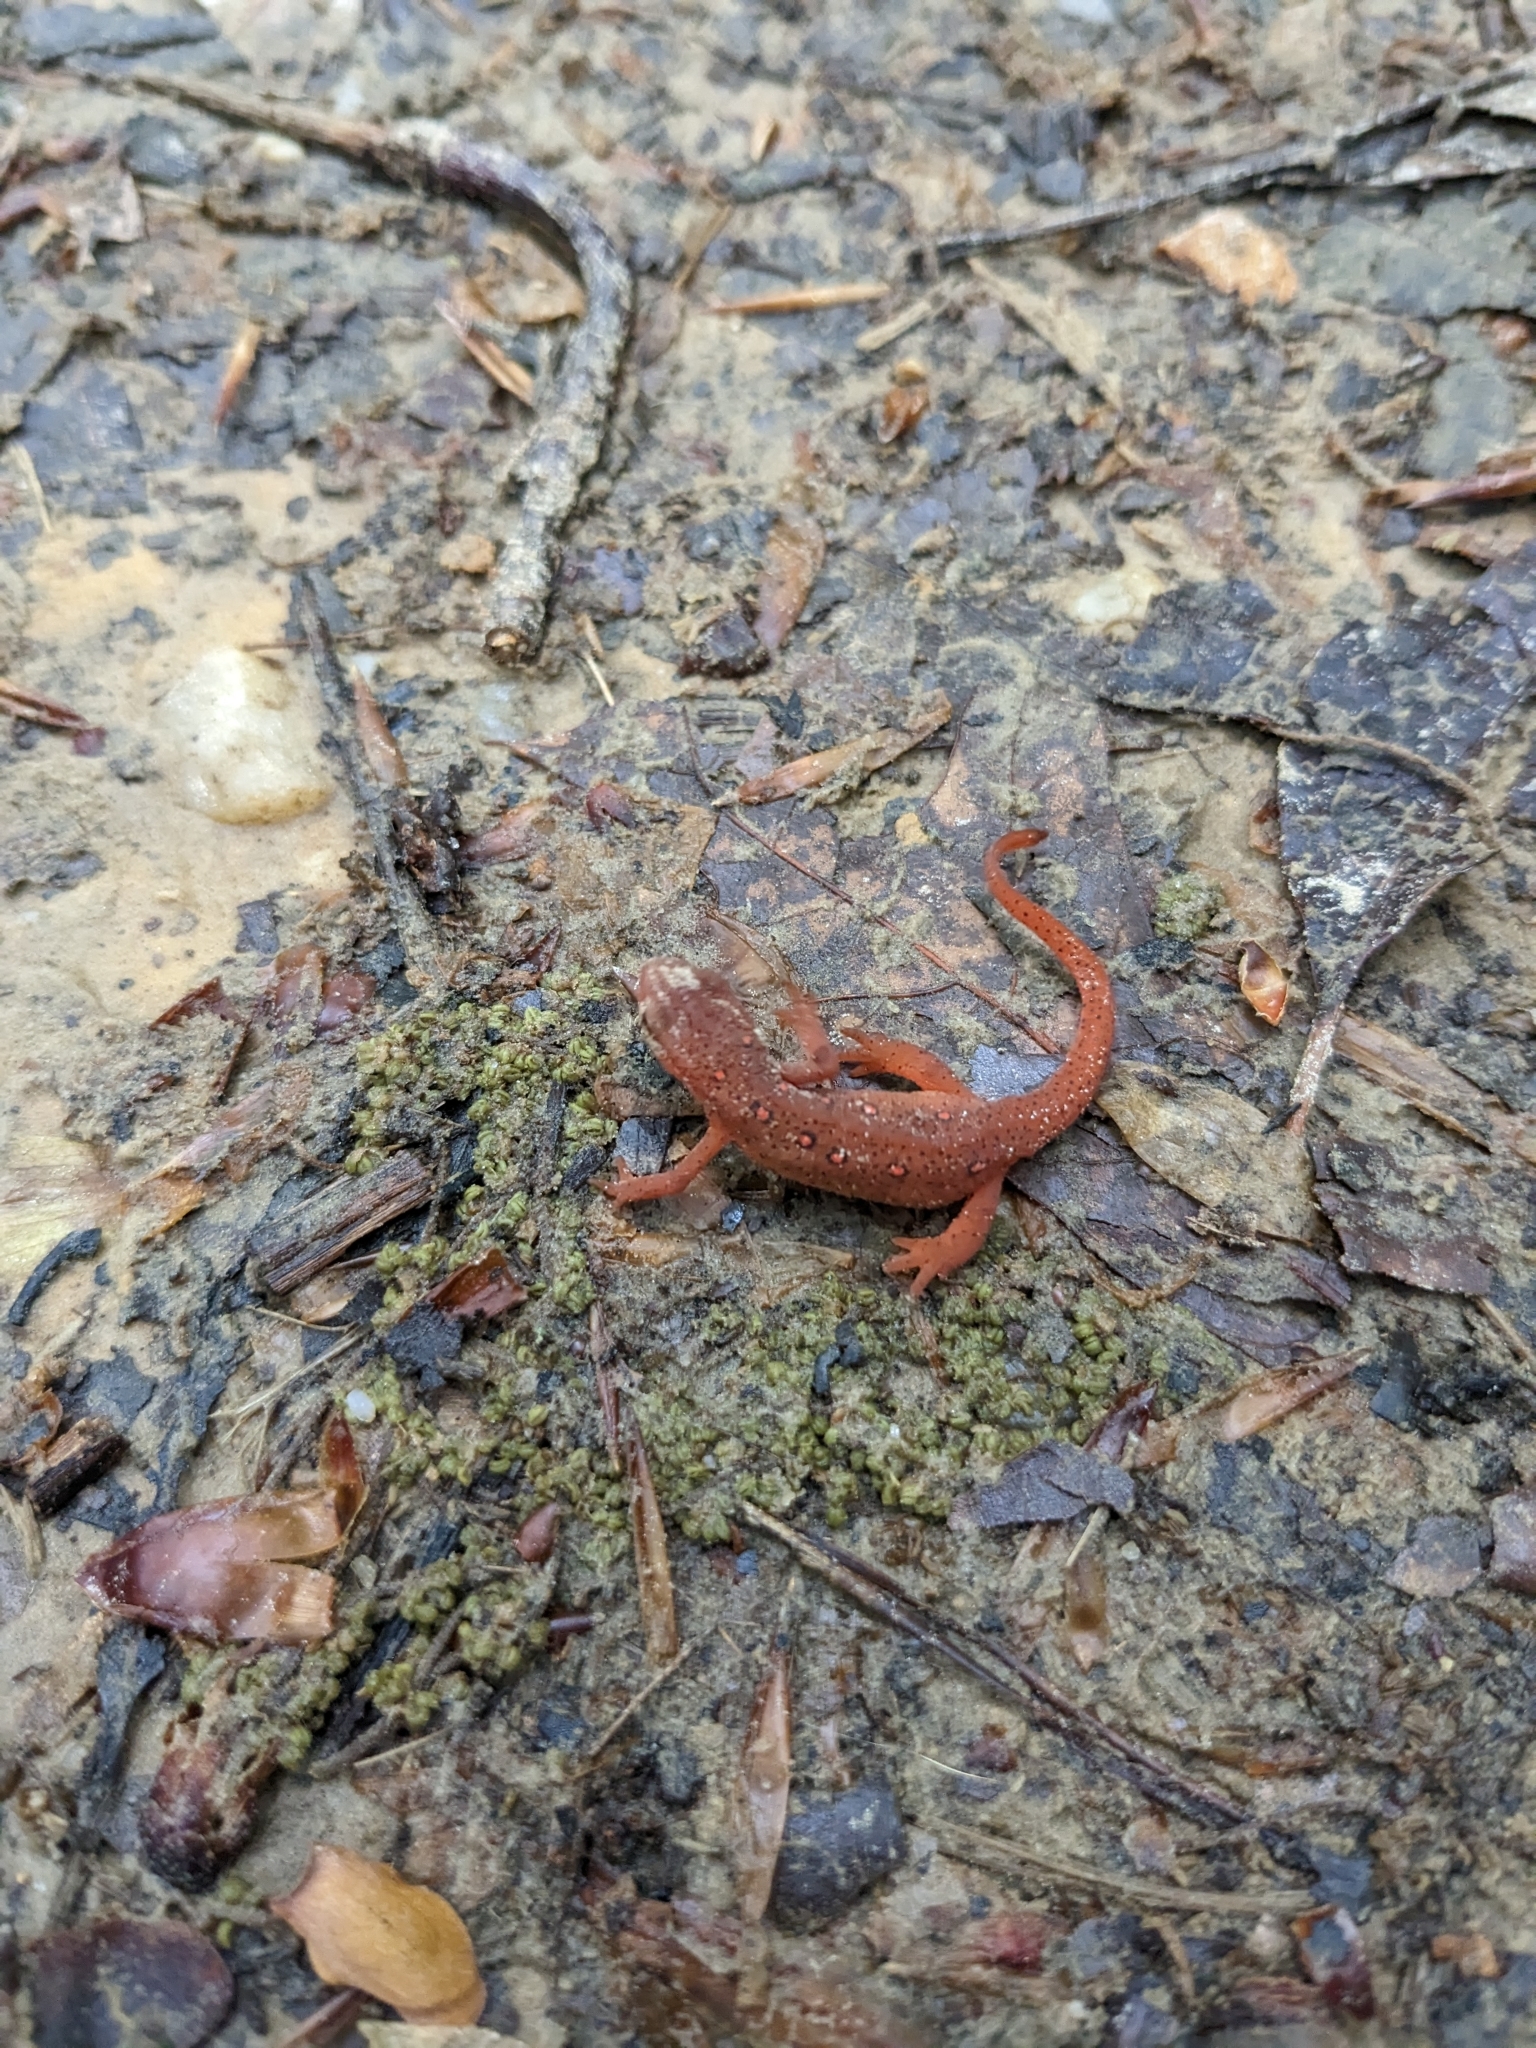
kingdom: Animalia
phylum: Chordata
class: Amphibia
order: Caudata
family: Salamandridae
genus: Notophthalmus
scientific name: Notophthalmus viridescens
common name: Eastern newt
